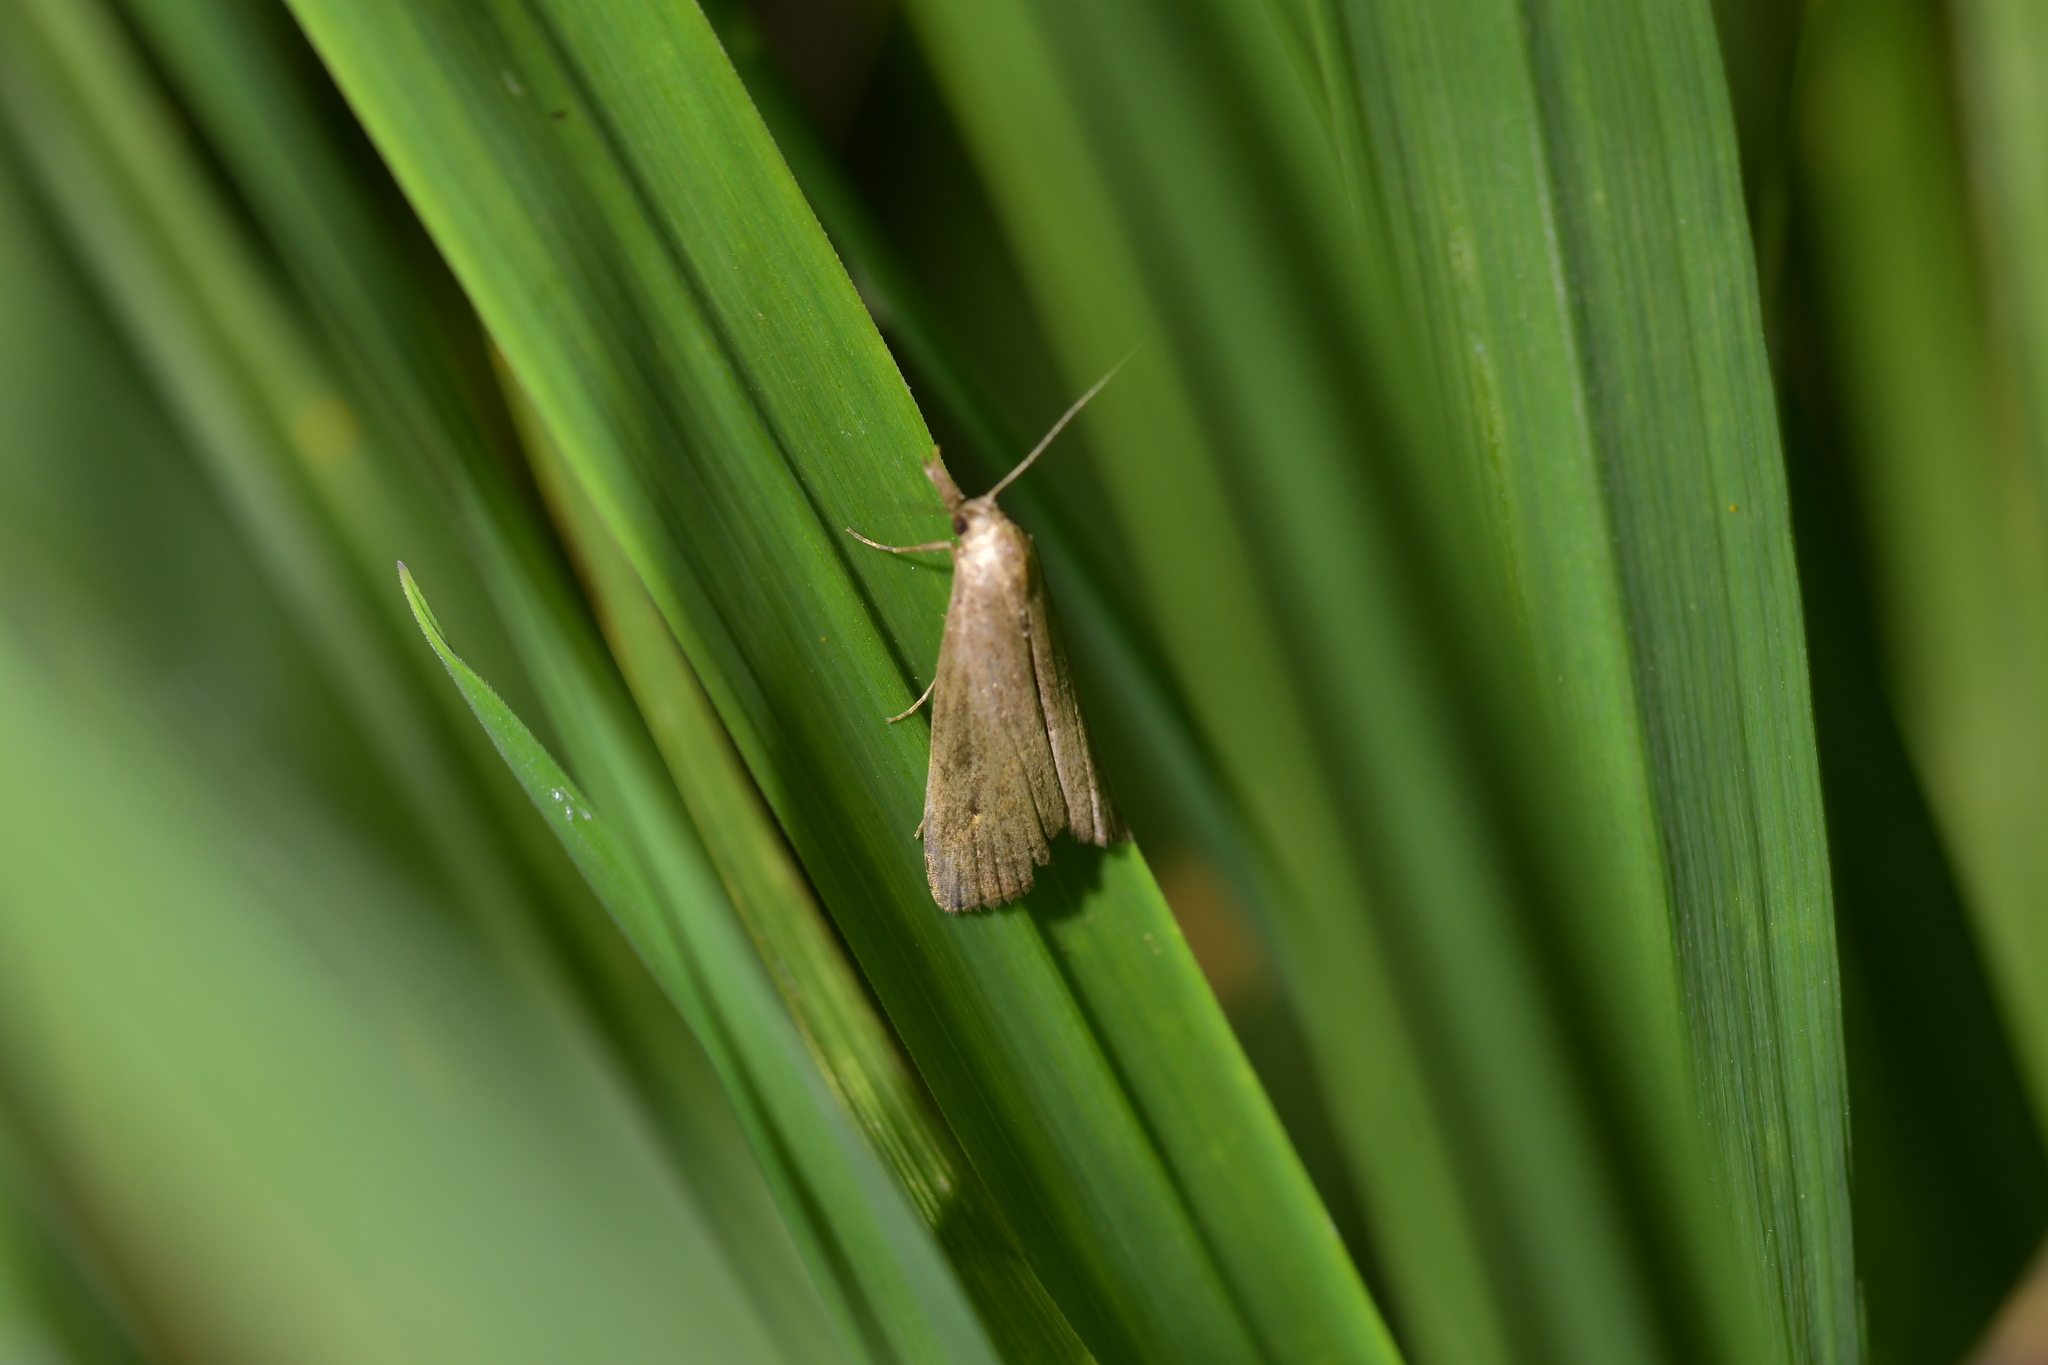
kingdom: Animalia
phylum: Arthropoda
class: Insecta
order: Lepidoptera
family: Erebidae
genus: Schrankia
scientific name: Schrankia costaestrigalis
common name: Pinion-streaked snout
